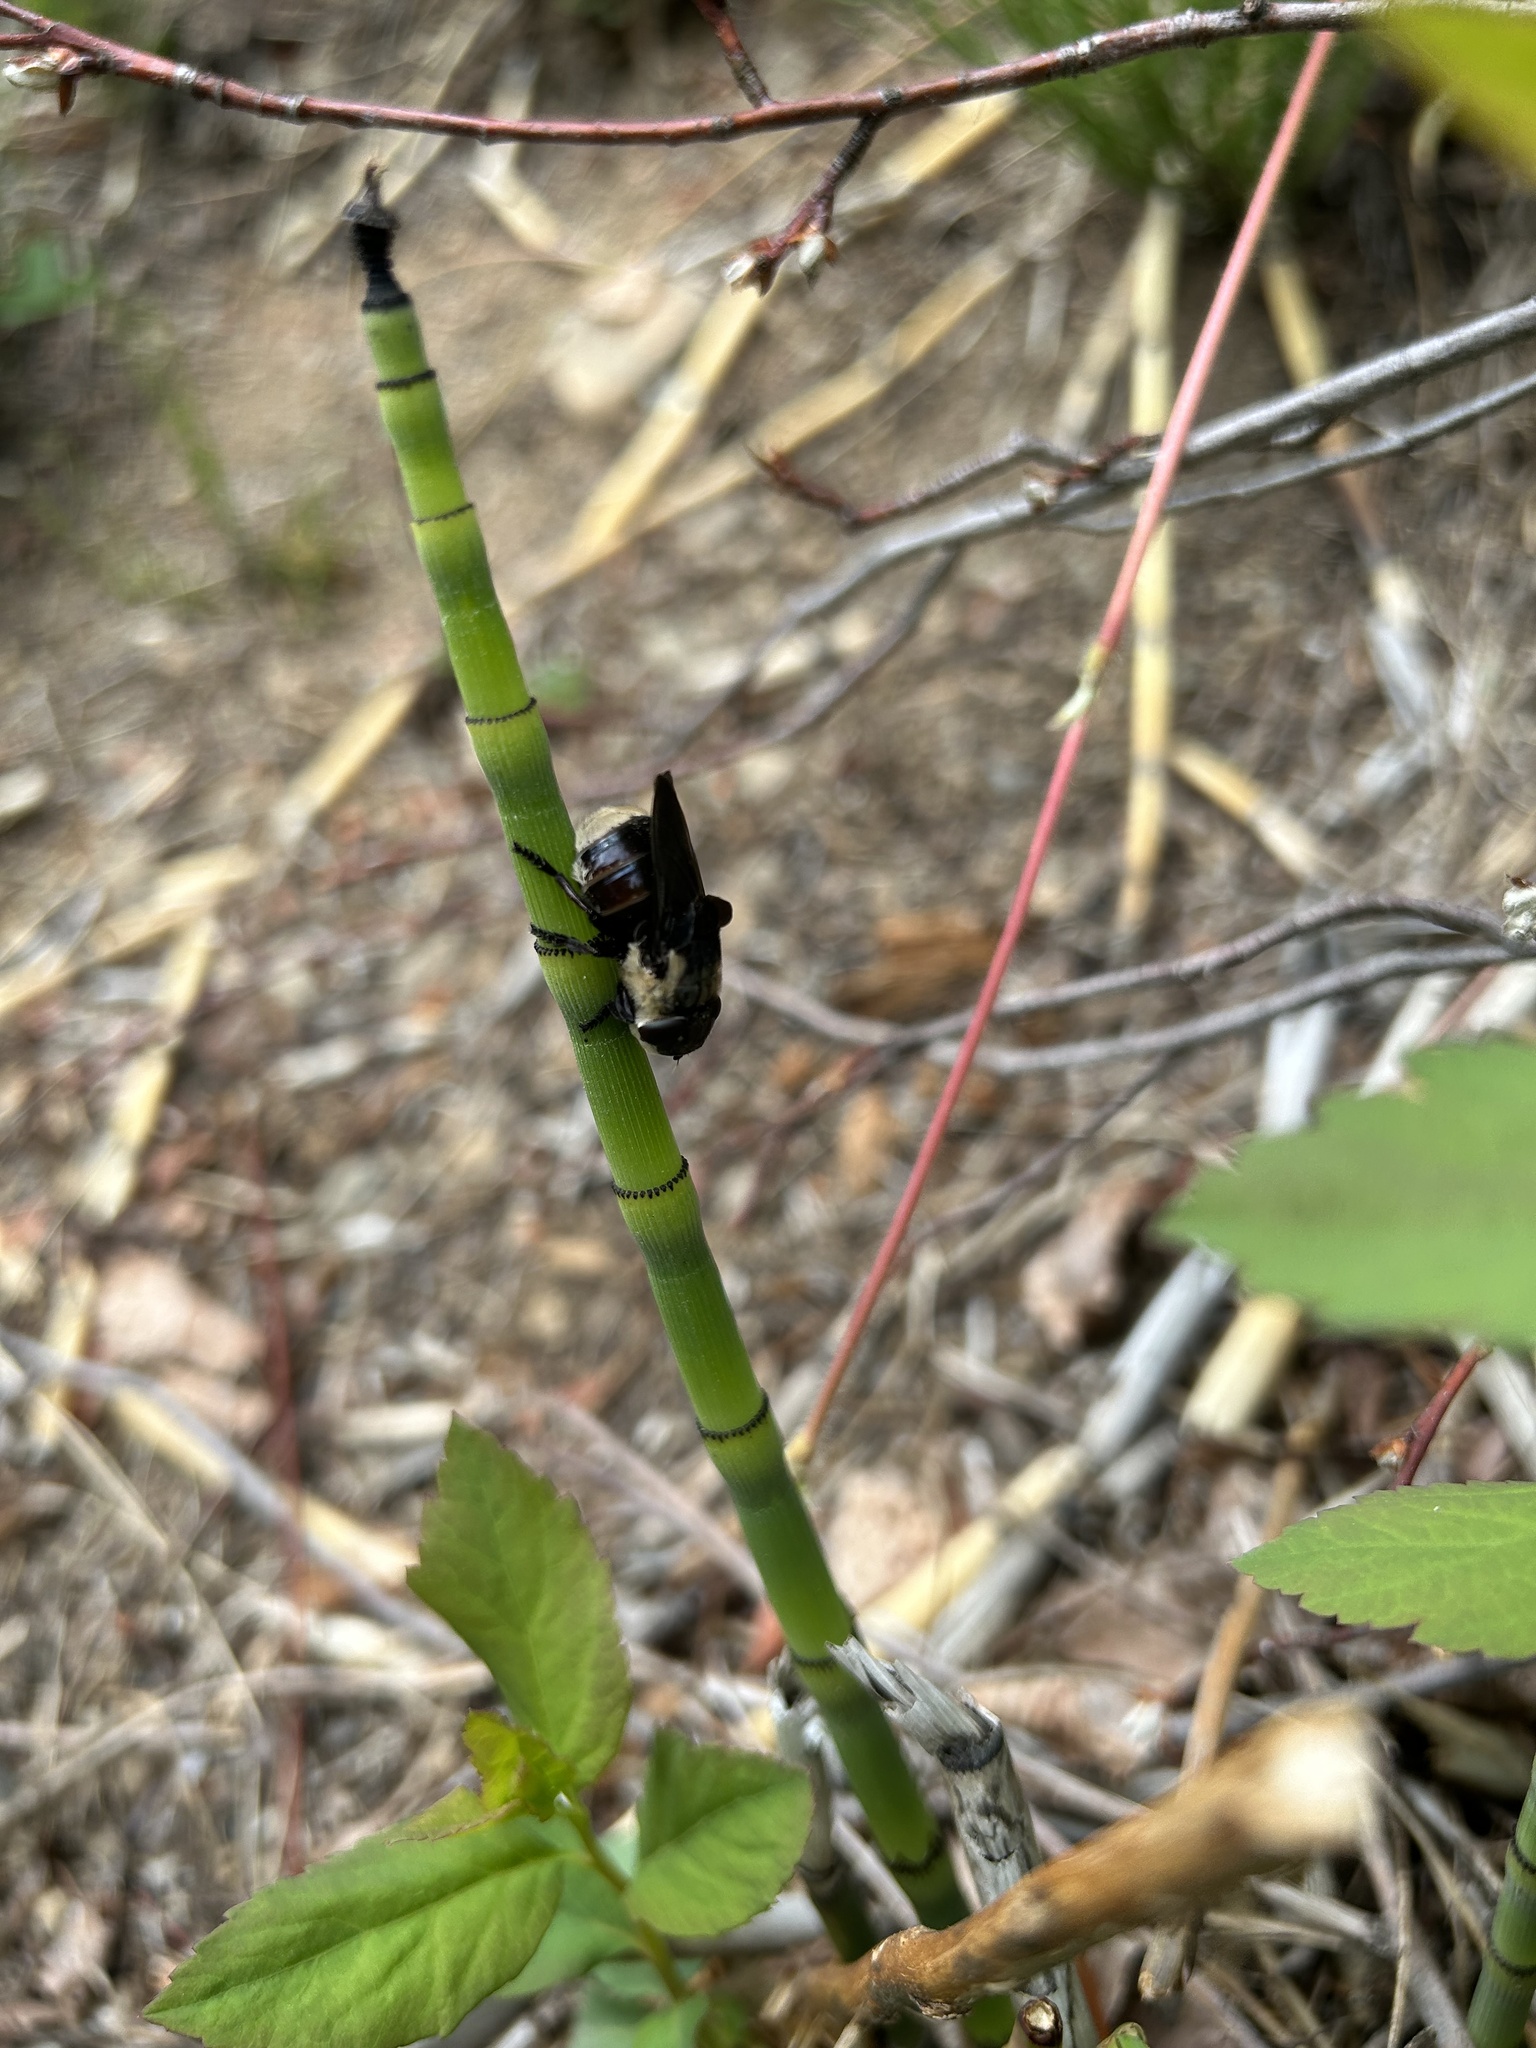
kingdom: Animalia
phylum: Arthropoda
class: Insecta
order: Diptera
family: Oestridae
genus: Cuterebra
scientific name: Cuterebra fontinella
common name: Mouse bot fly
